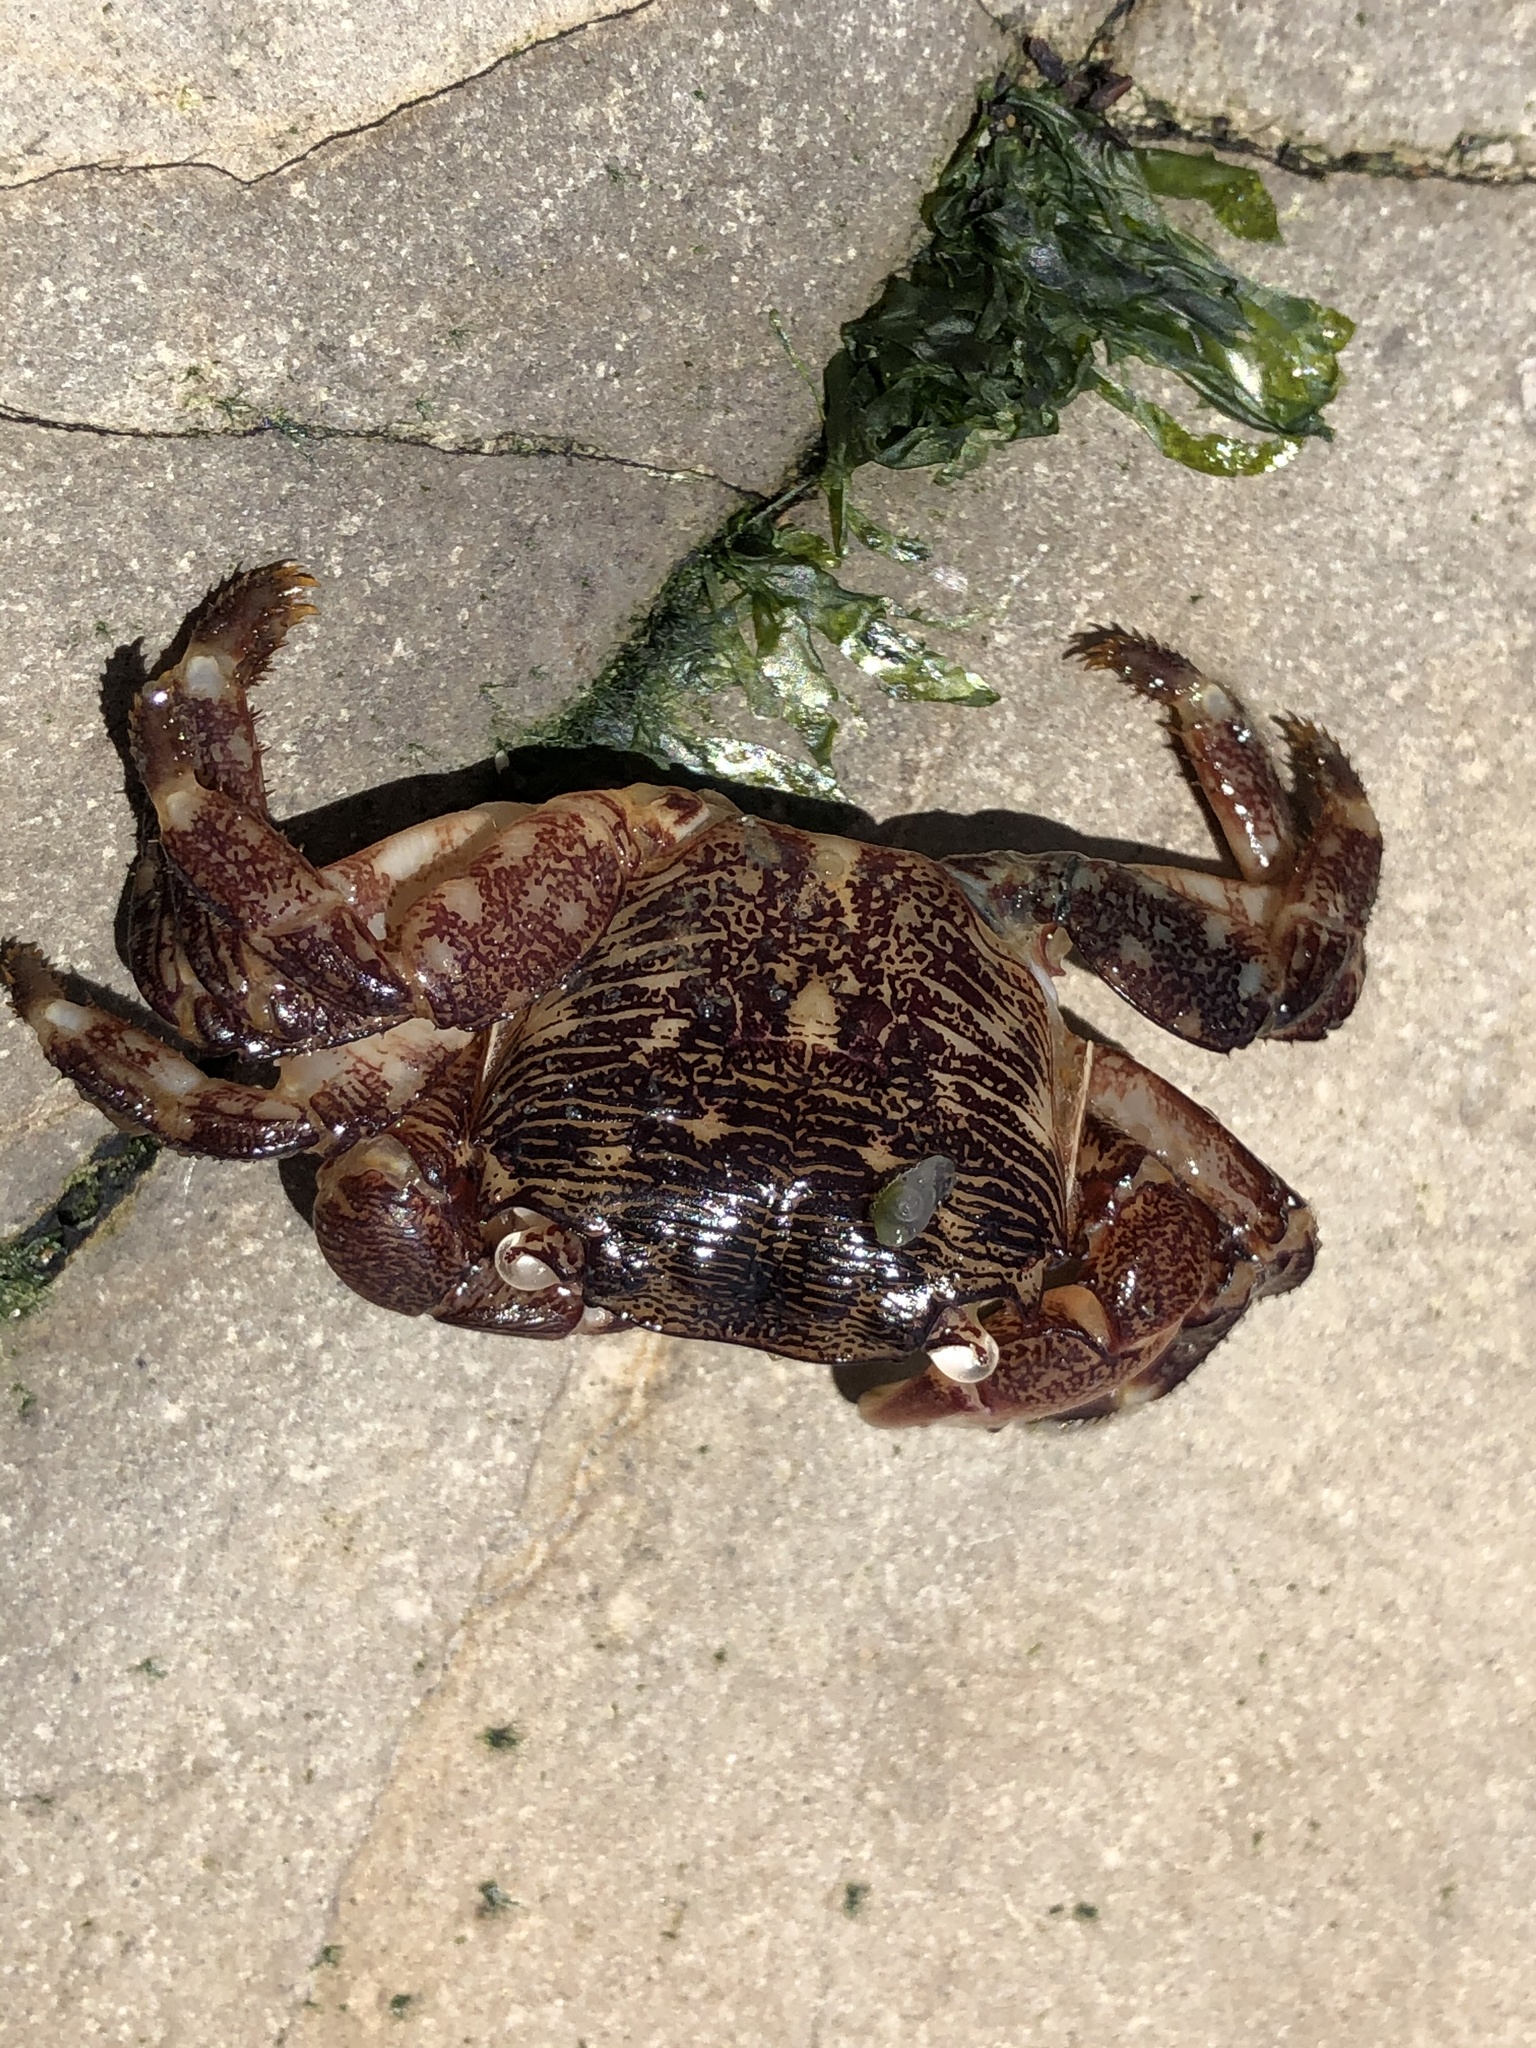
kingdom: Animalia
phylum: Arthropoda
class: Malacostraca
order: Decapoda
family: Grapsidae
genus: Pachygrapsus
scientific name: Pachygrapsus crassipes
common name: Striped shore crab
